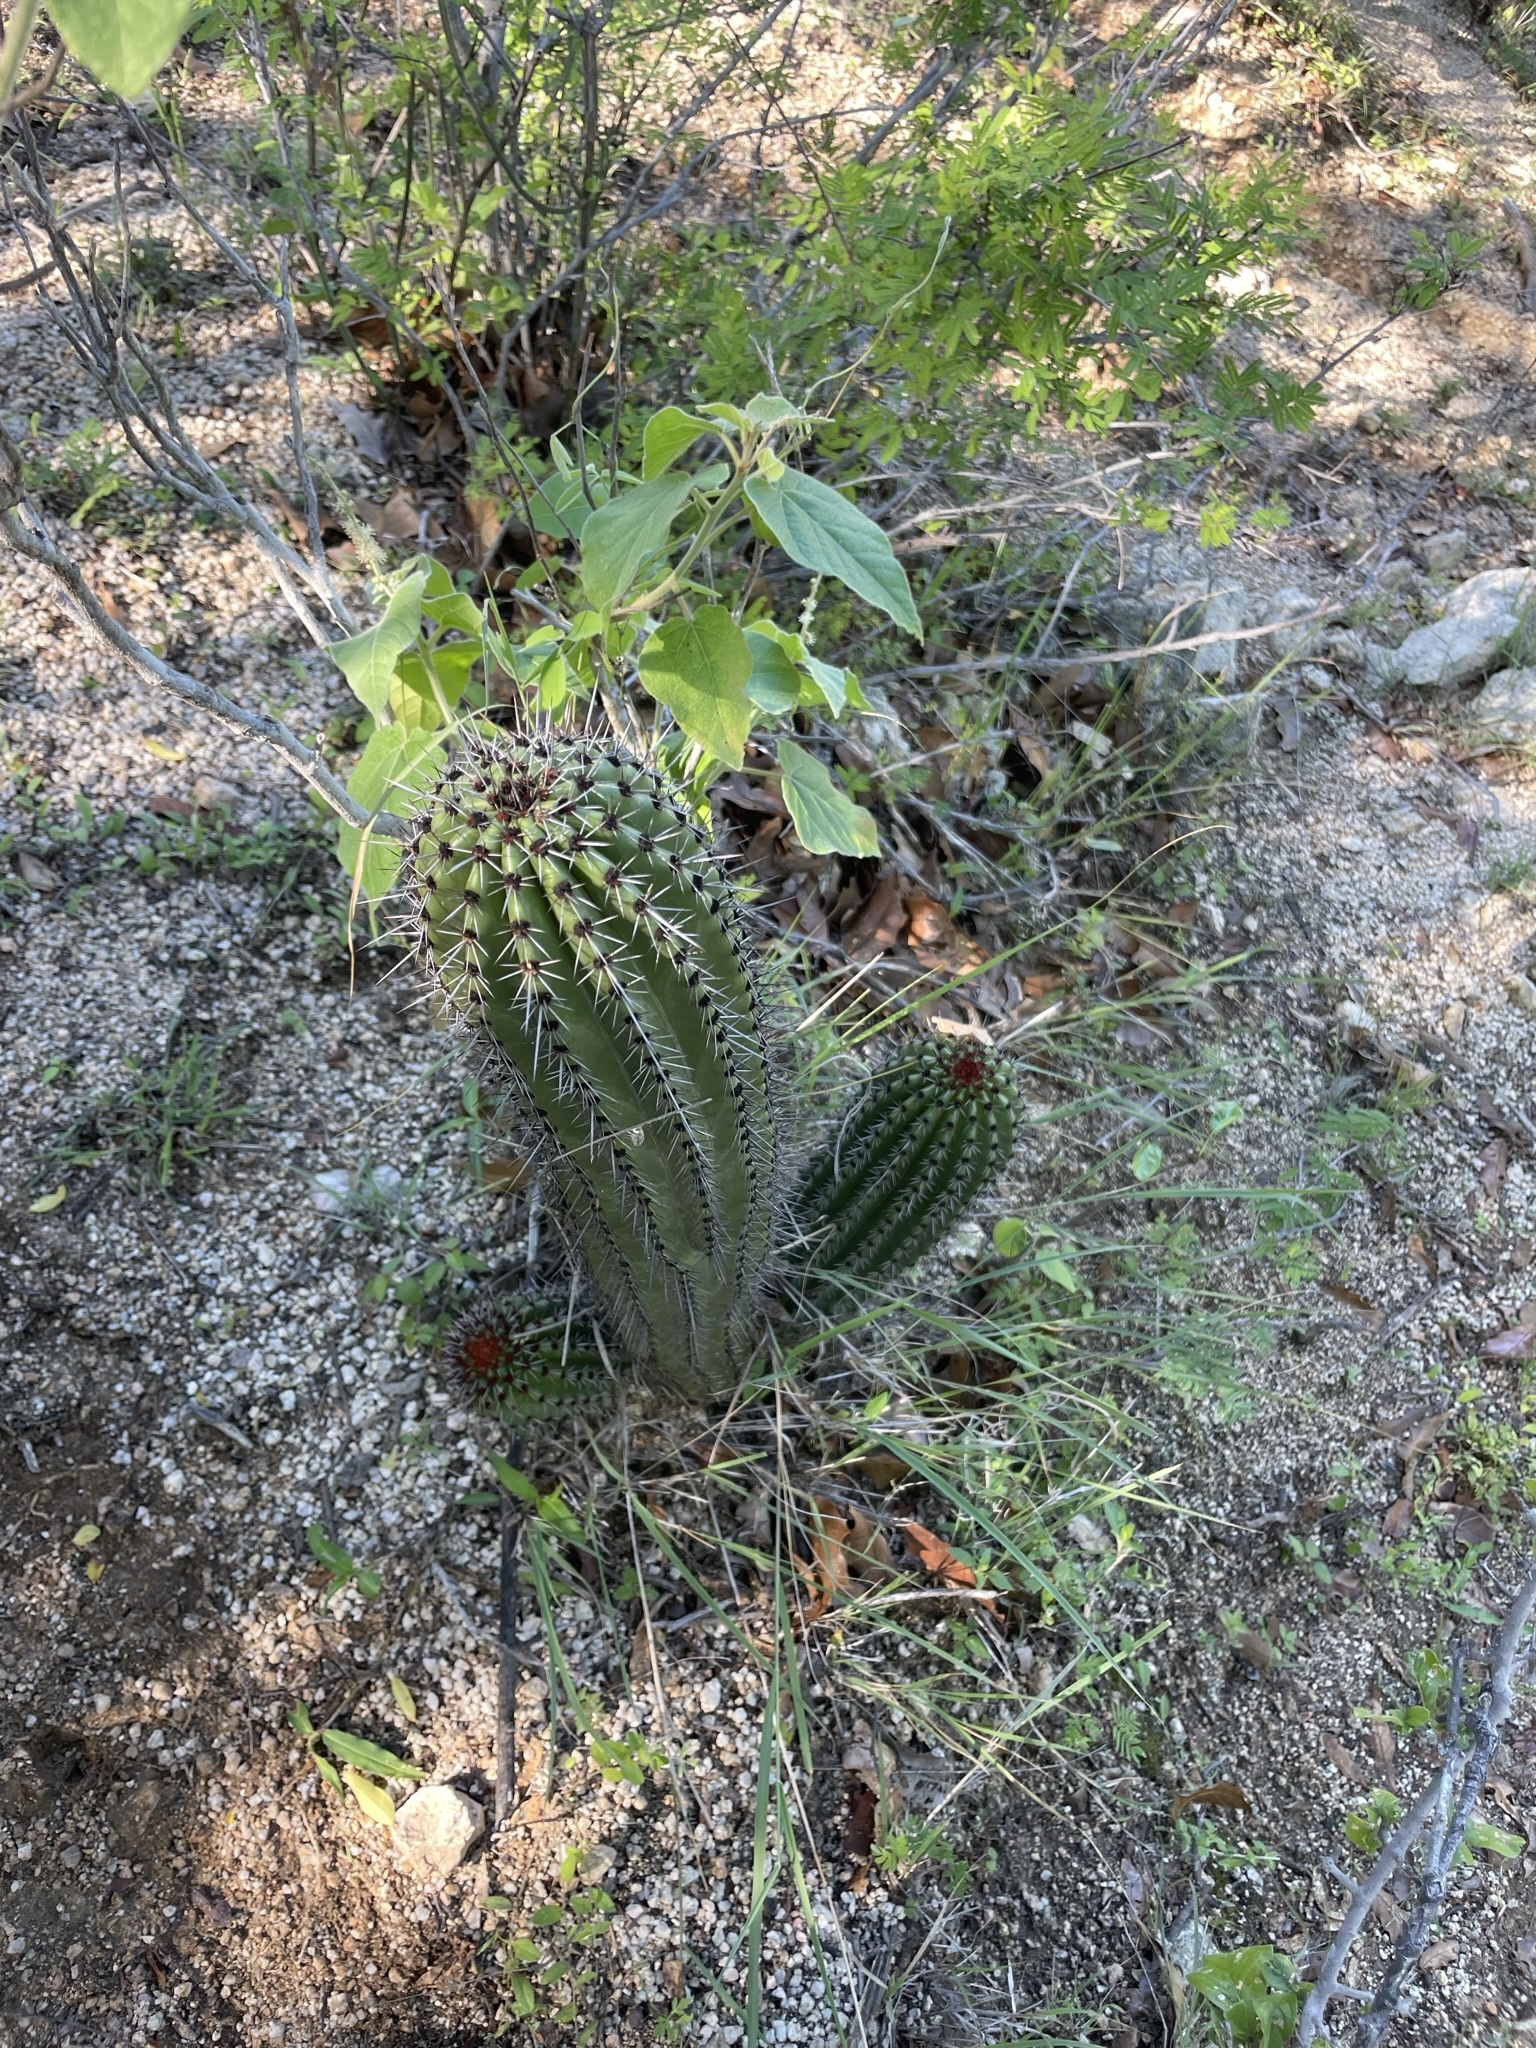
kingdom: Plantae
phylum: Tracheophyta
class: Magnoliopsida
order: Caryophyllales
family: Cactaceae
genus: Stenocereus
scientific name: Stenocereus thurberi
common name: Organ pipe cactus
